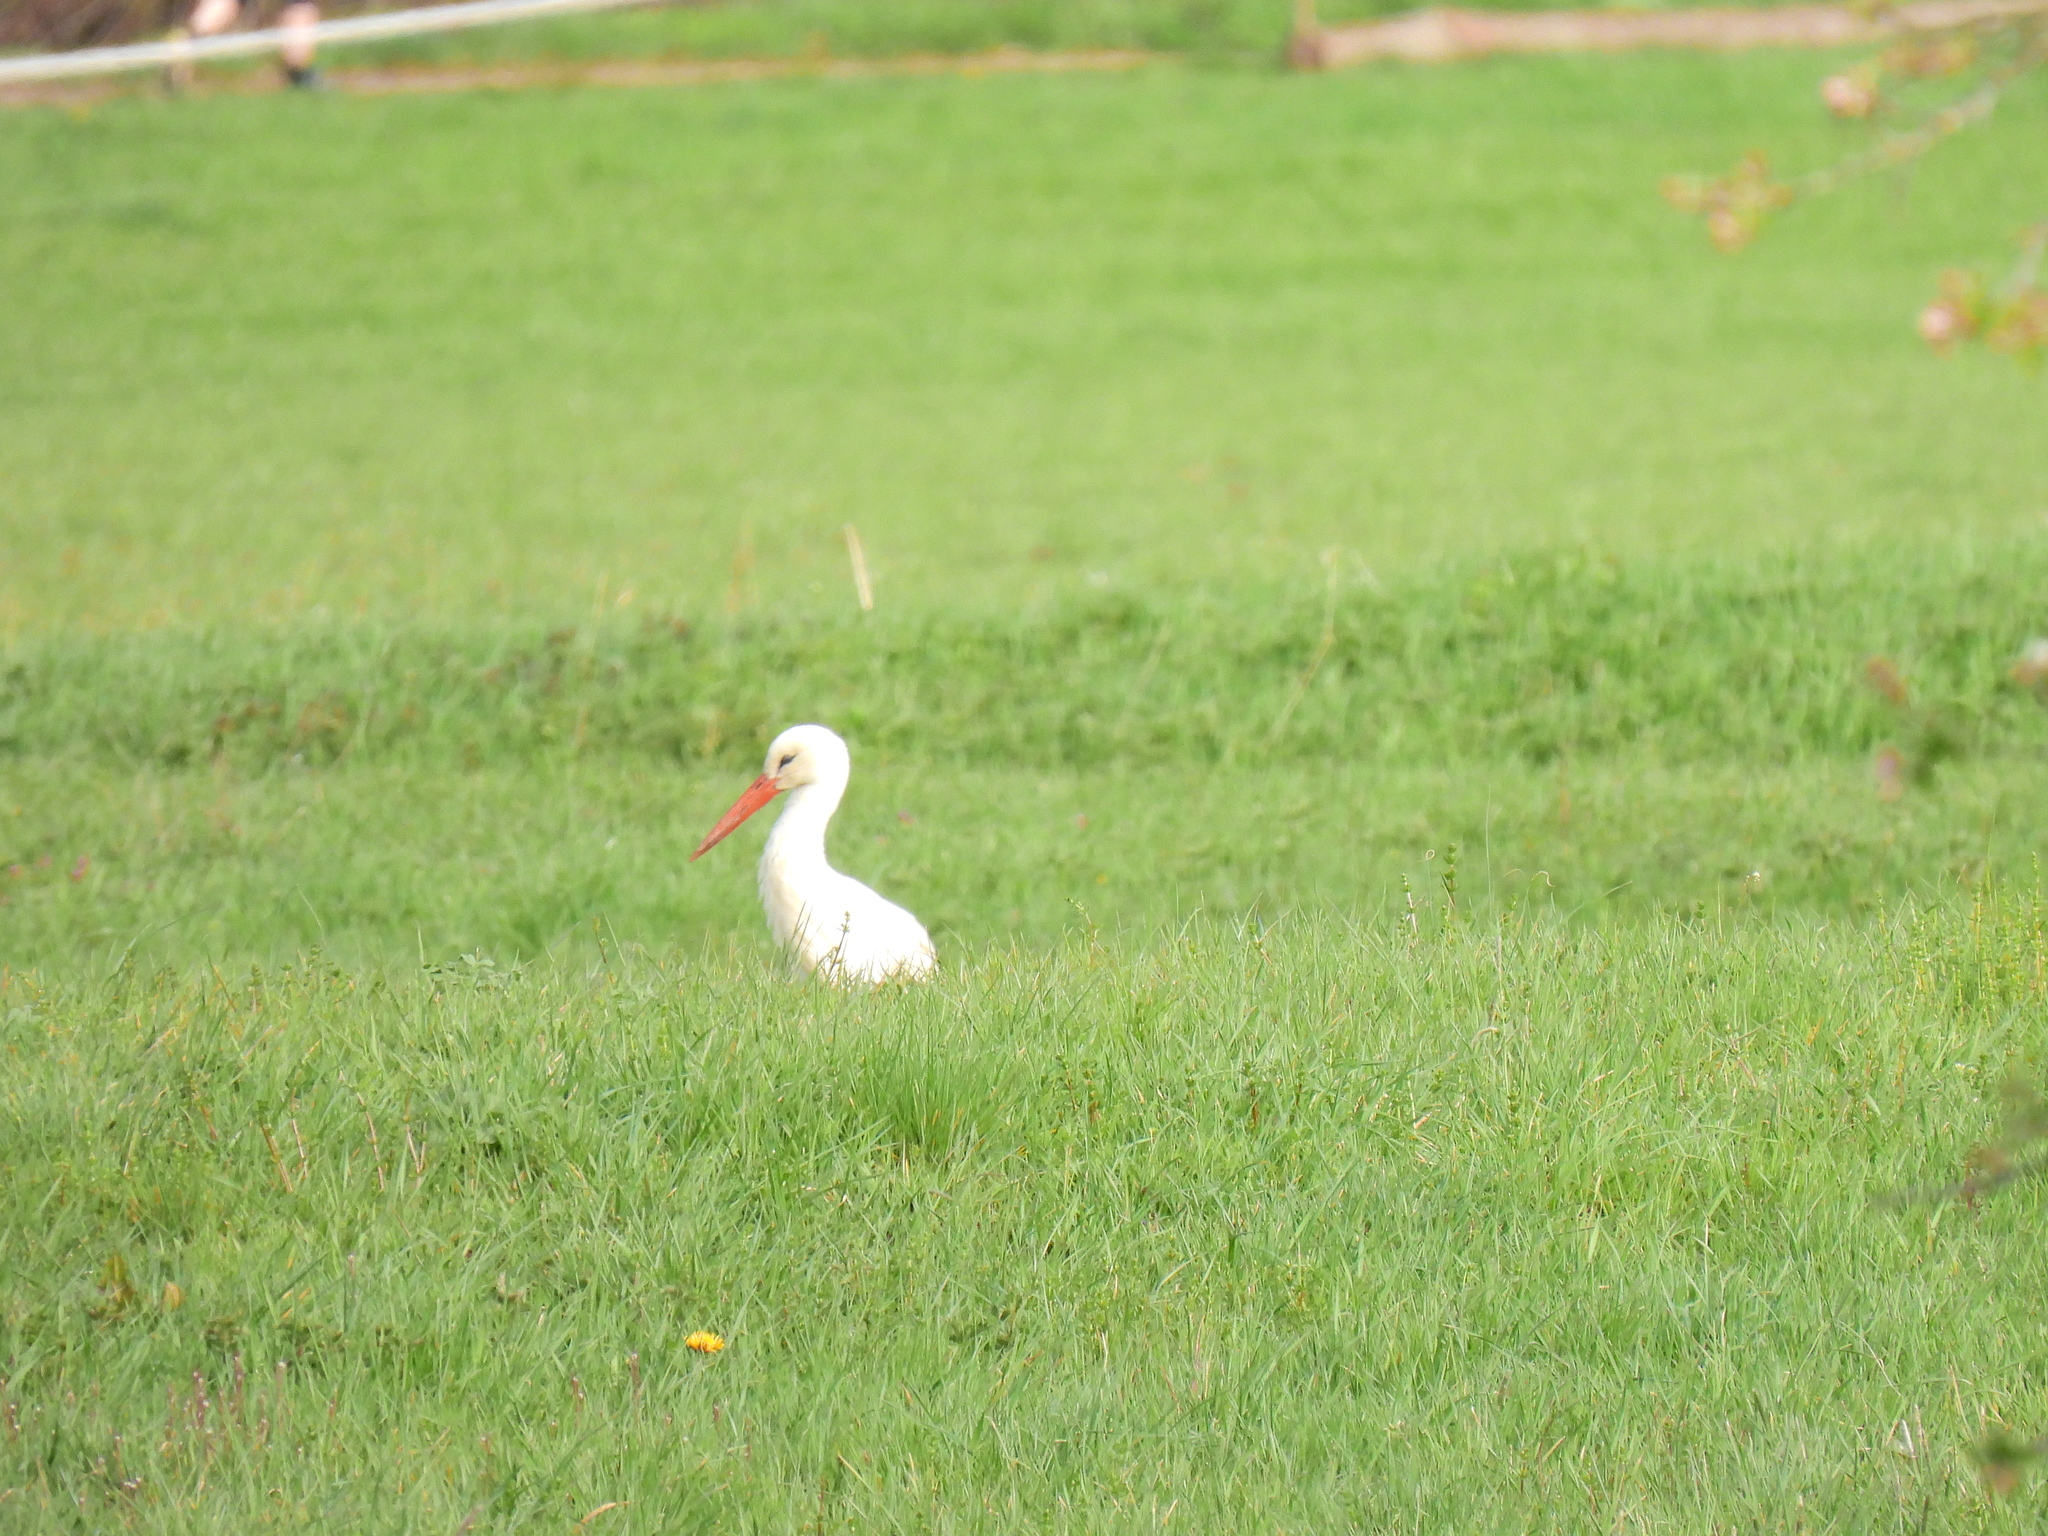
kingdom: Animalia
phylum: Chordata
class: Aves
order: Ciconiiformes
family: Ciconiidae
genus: Ciconia
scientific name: Ciconia ciconia
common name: White stork
